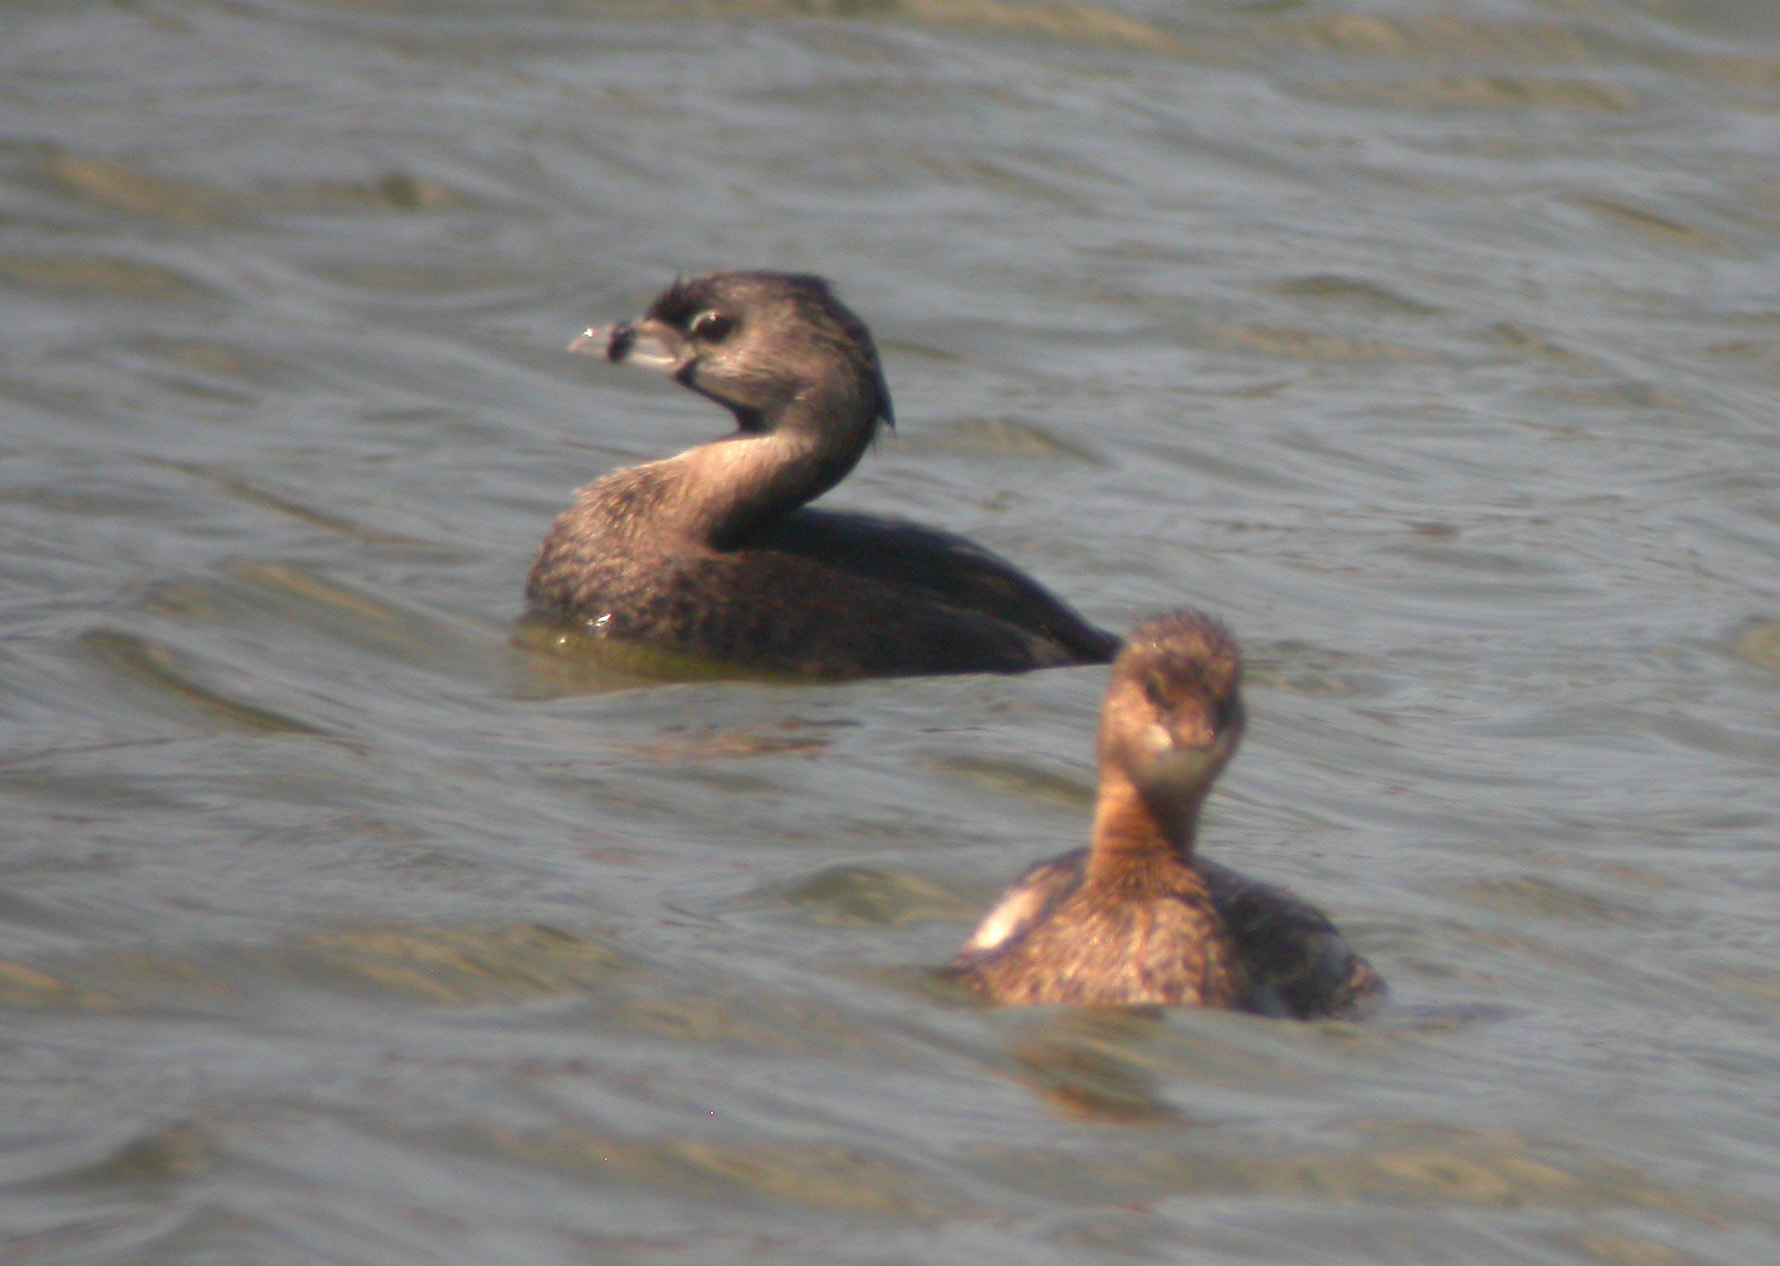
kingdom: Animalia
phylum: Chordata
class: Aves
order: Podicipediformes
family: Podicipedidae
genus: Podilymbus
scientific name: Podilymbus podiceps
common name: Pied-billed grebe
